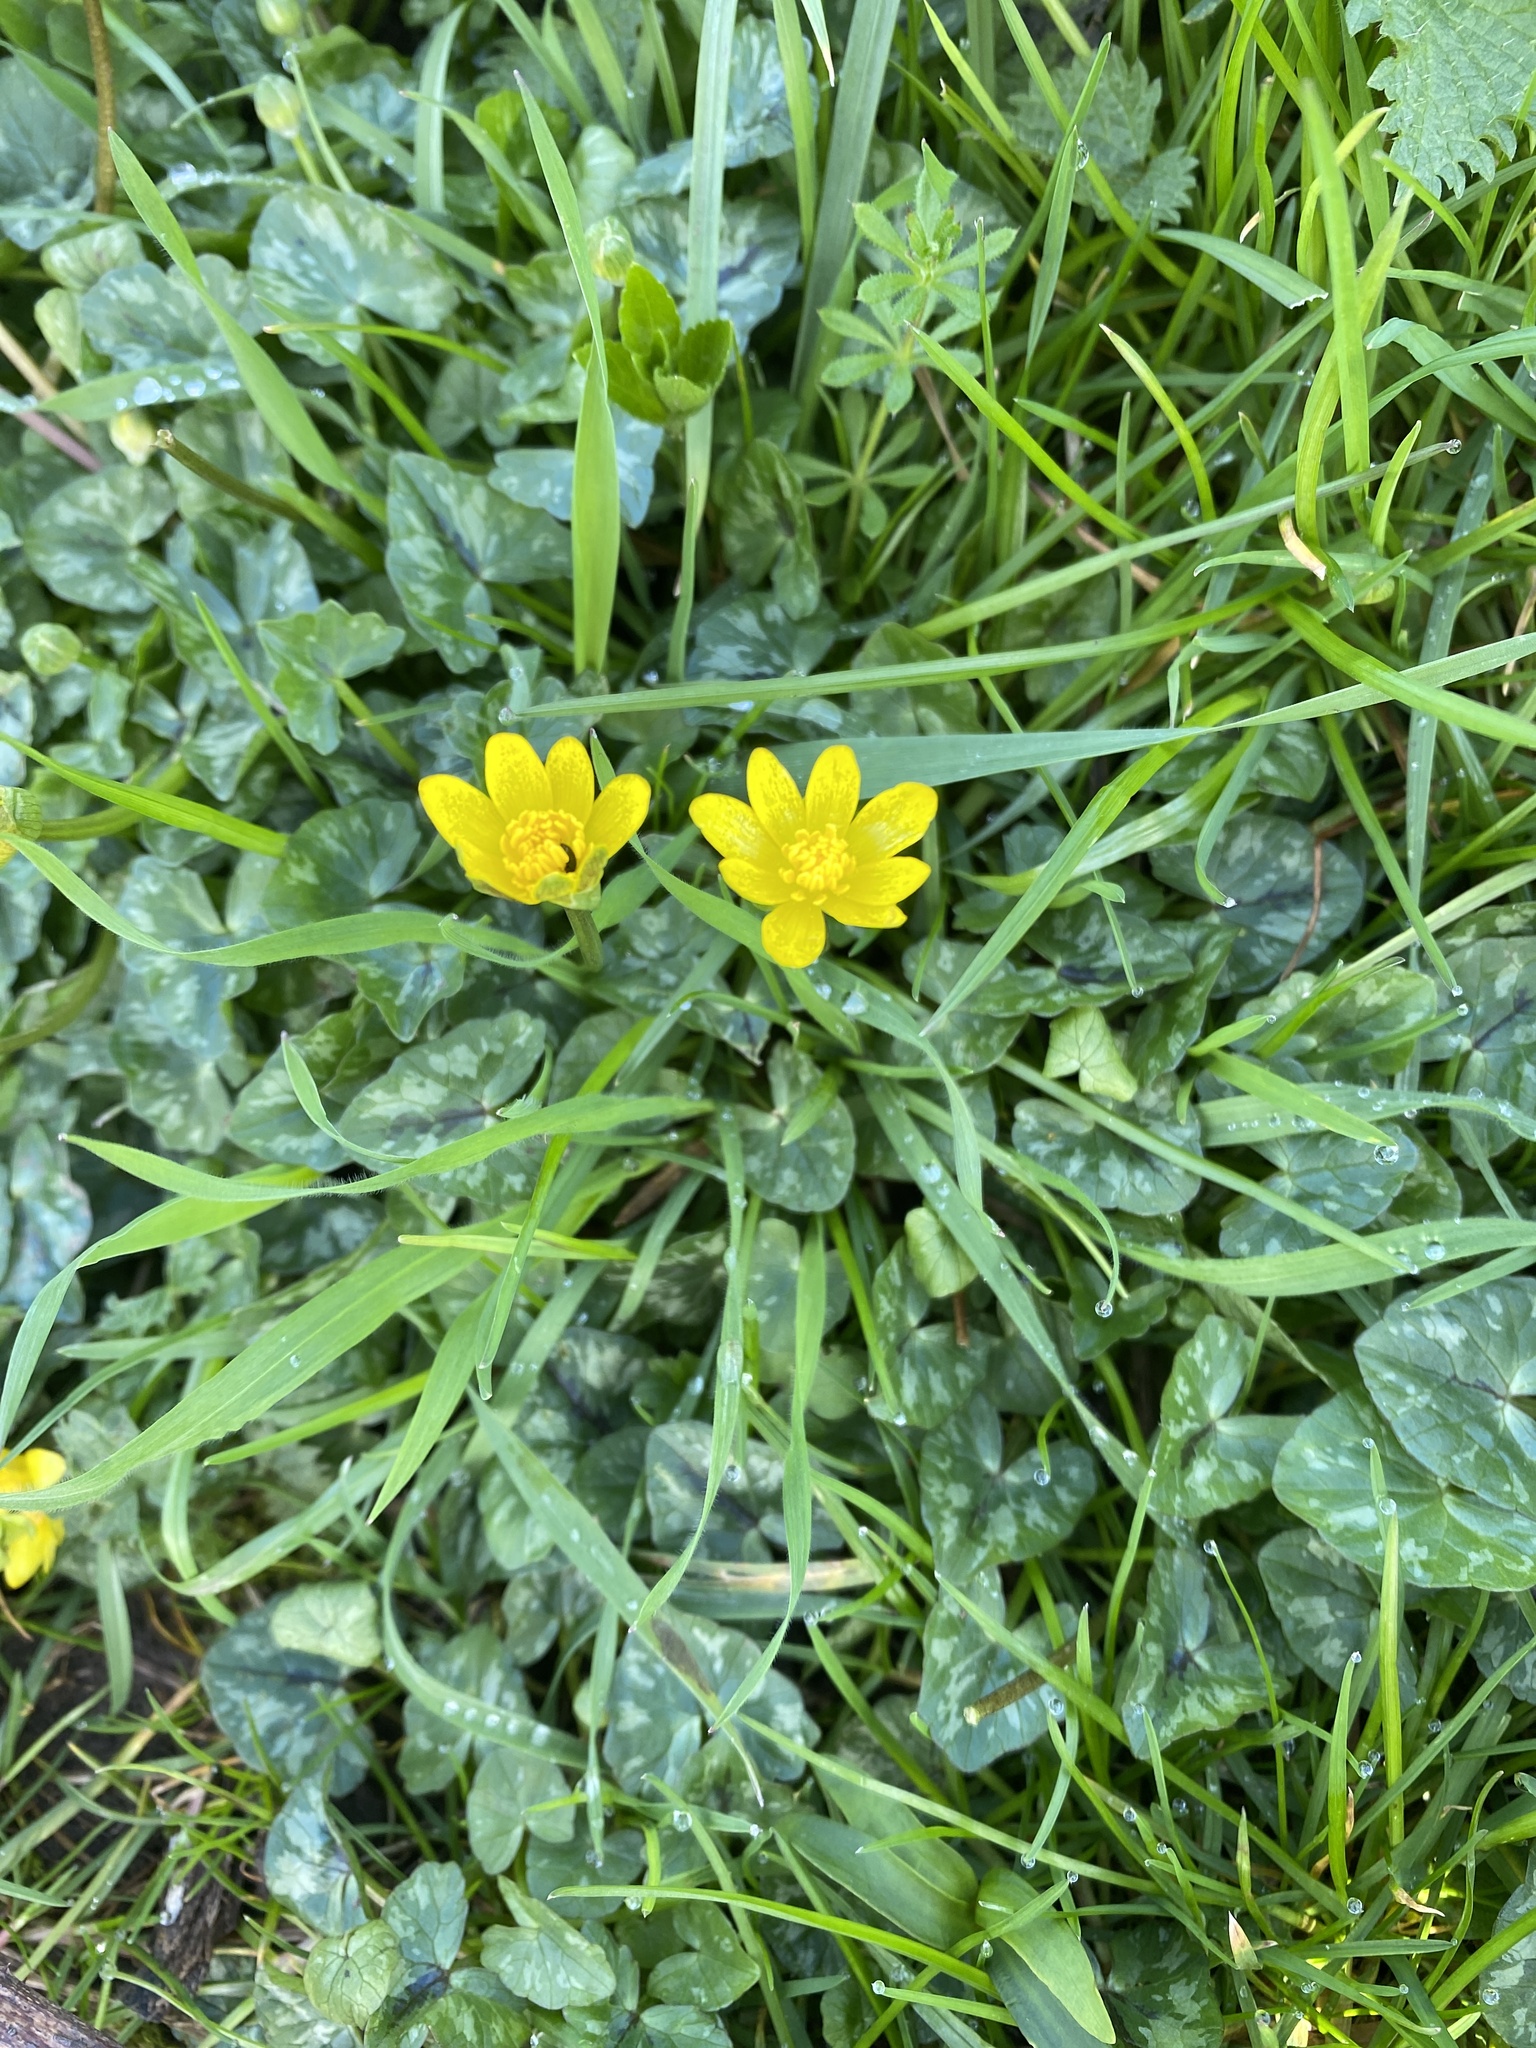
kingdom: Plantae
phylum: Tracheophyta
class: Magnoliopsida
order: Ranunculales
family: Ranunculaceae
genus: Ficaria
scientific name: Ficaria verna
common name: Lesser celandine
